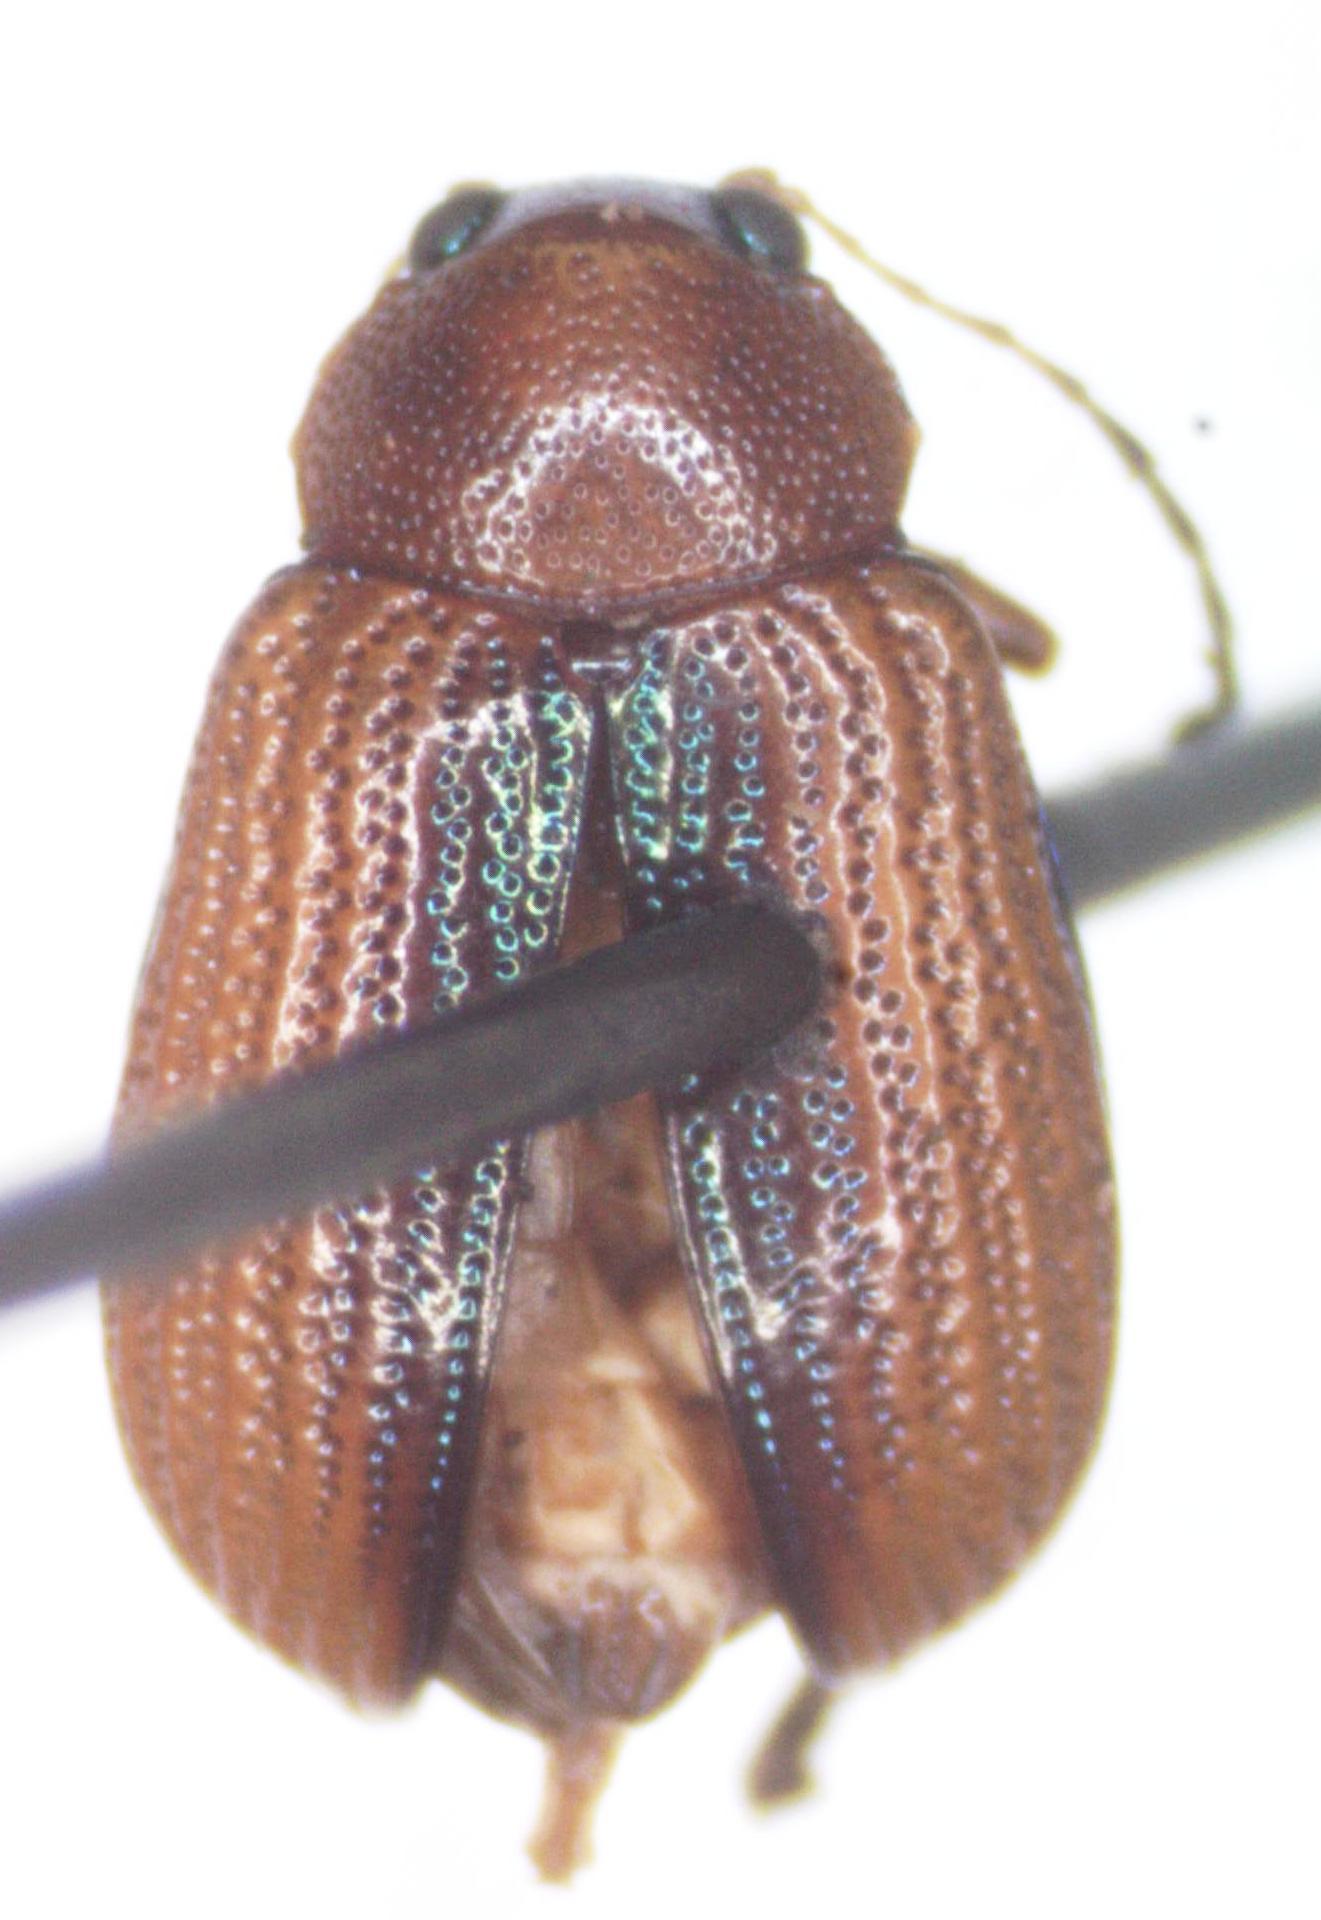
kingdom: Animalia
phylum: Arthropoda
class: Insecta
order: Coleoptera
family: Chrysomelidae
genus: Deuteronoda
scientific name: Deuteronoda
